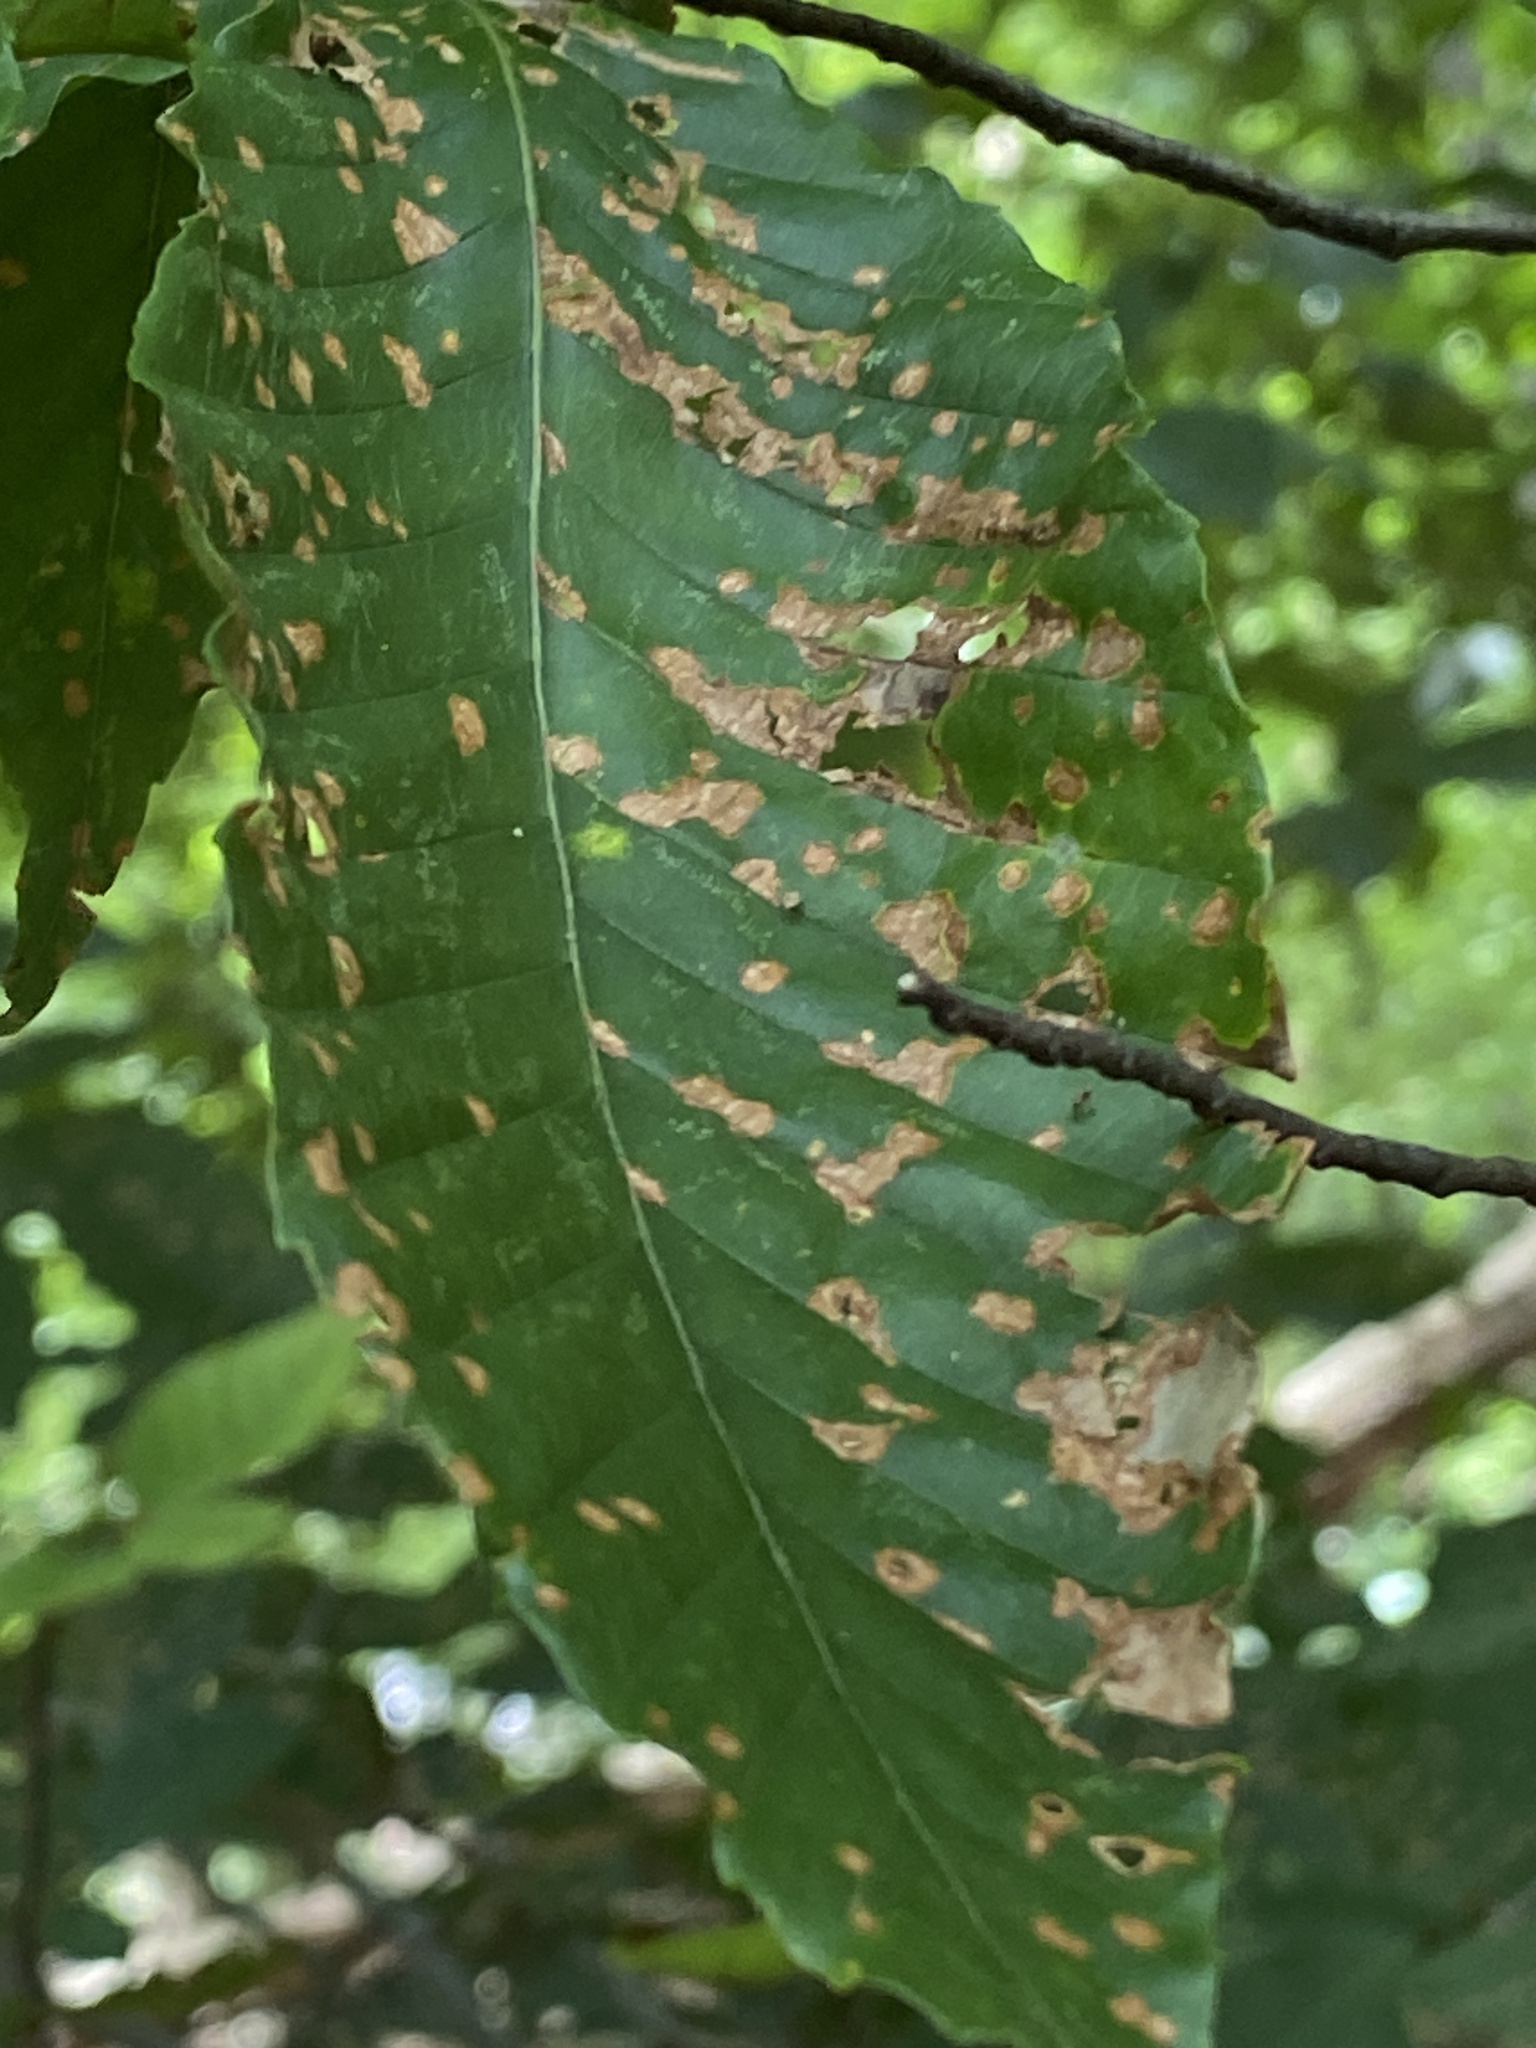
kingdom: Animalia
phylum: Nematoda
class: Chromadorea
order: Rhabditida
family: Anguinidae
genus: Litylenchus
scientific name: Litylenchus crenatae
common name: Beech leaf disease
